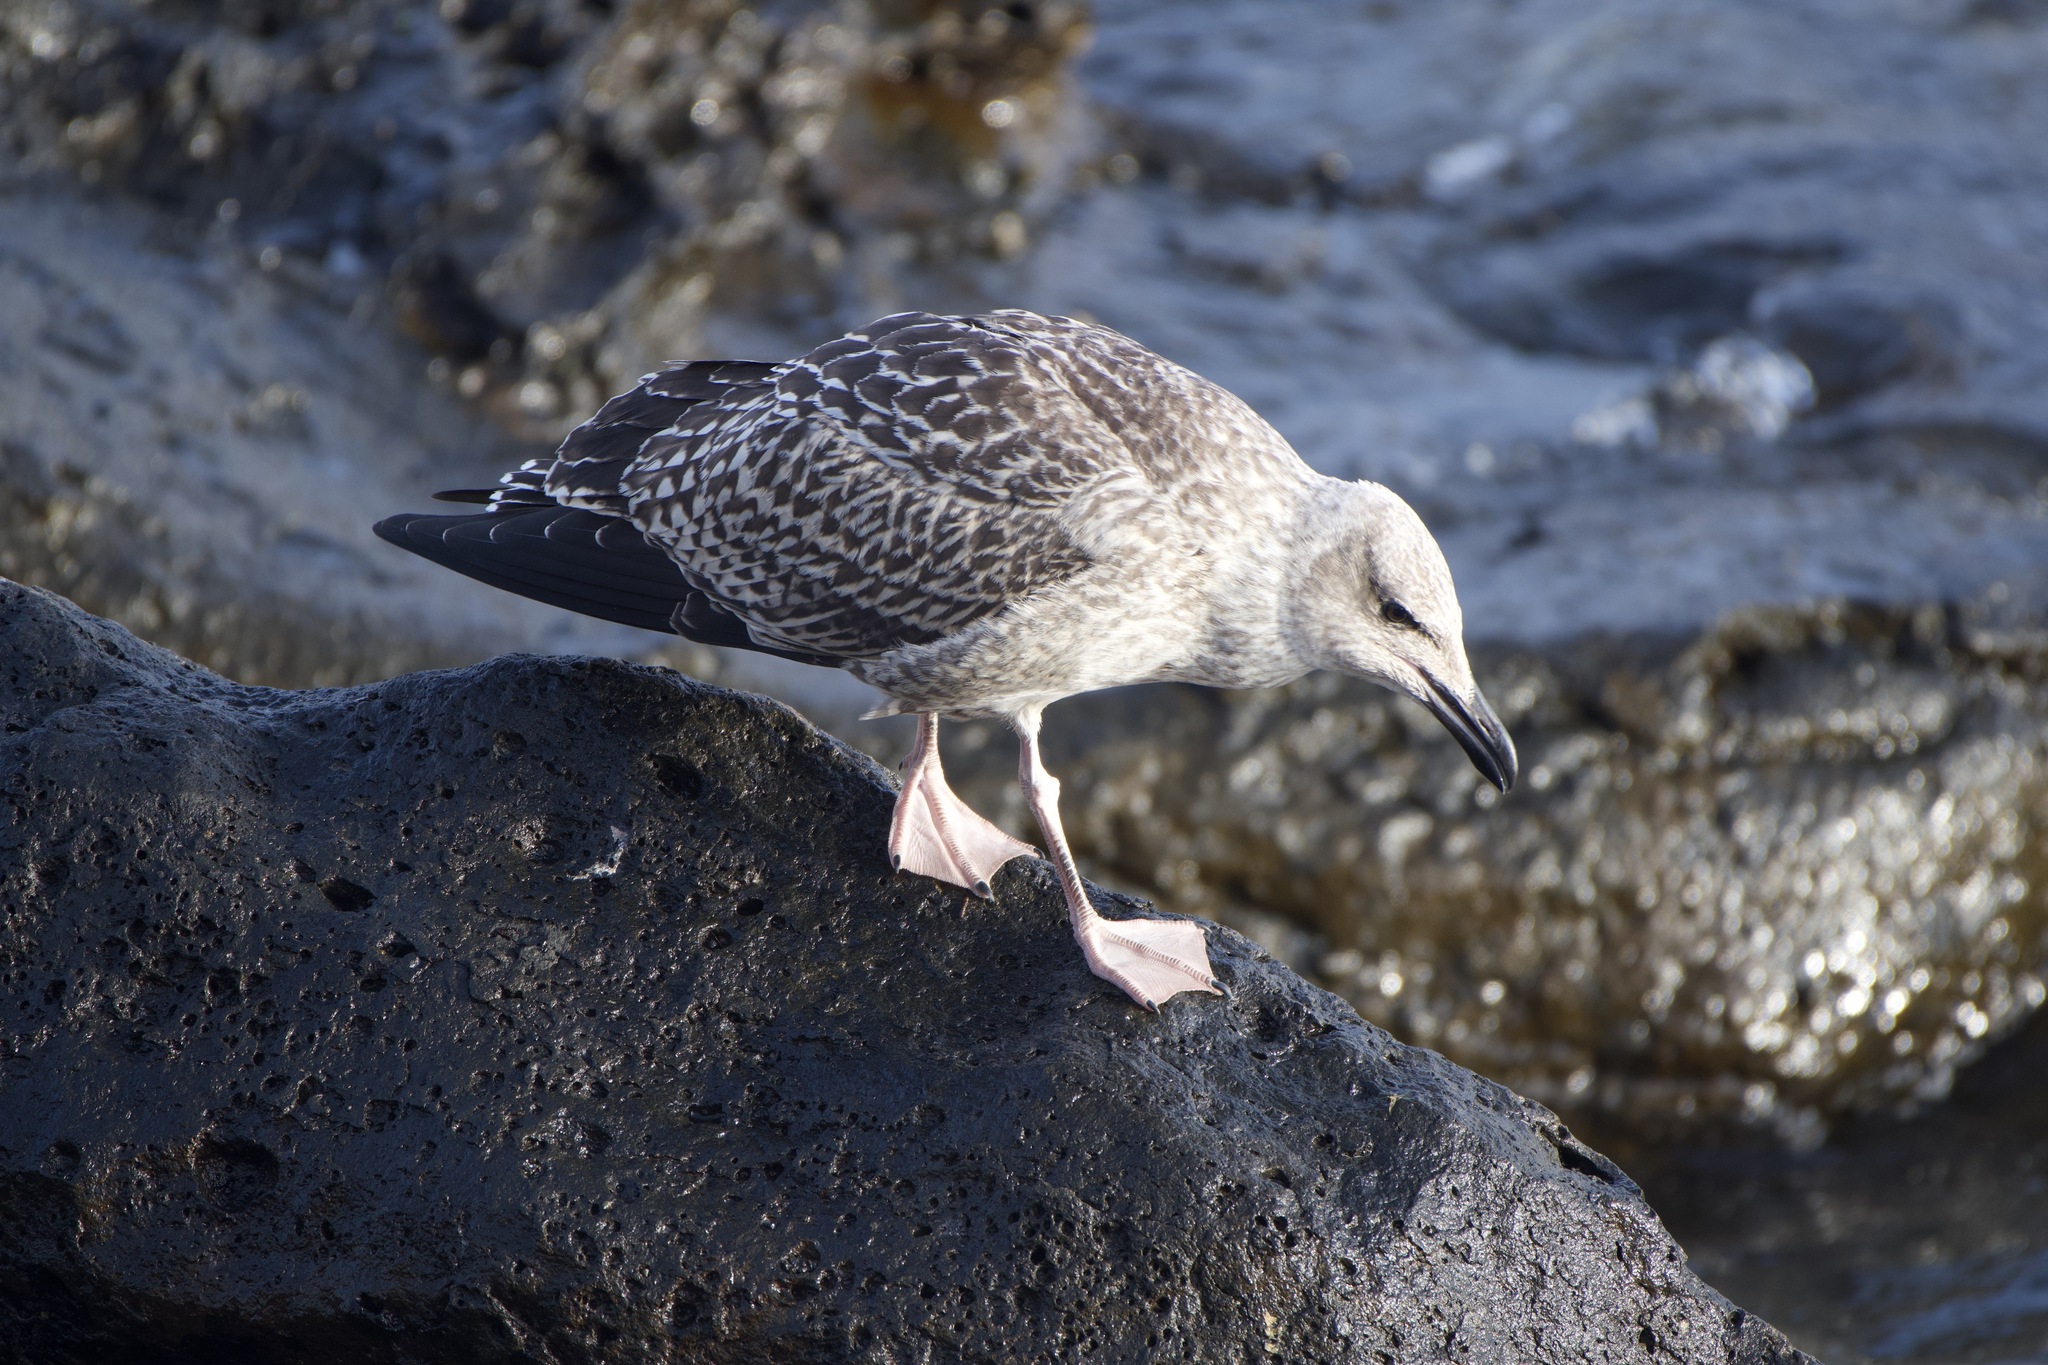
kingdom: Animalia
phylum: Chordata
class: Aves
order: Charadriiformes
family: Laridae
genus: Larus
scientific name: Larus michahellis
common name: Yellow-legged gull
